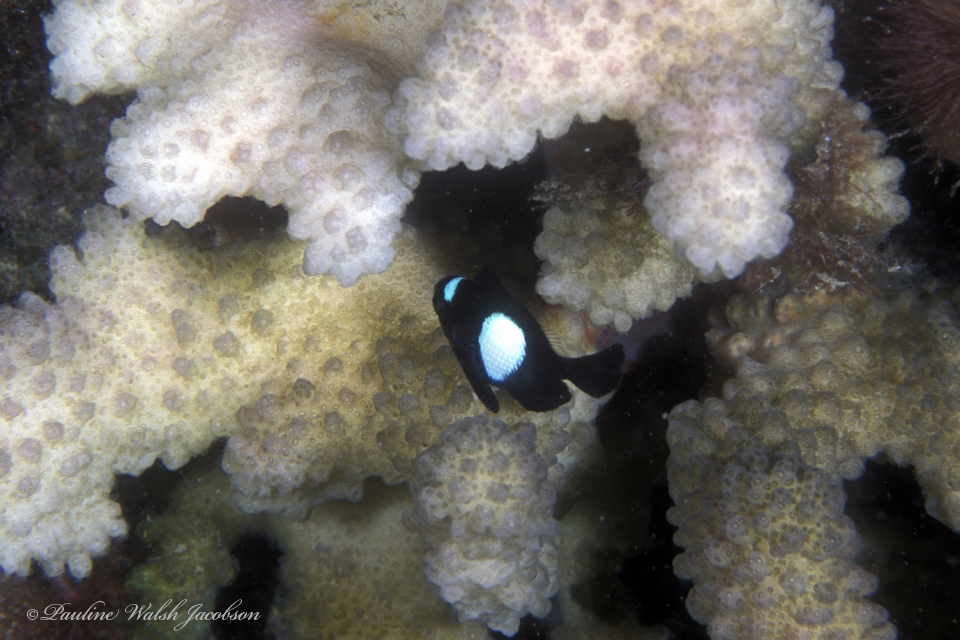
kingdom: Animalia
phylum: Chordata
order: Perciformes
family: Pomacentridae
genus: Dascyllus
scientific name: Dascyllus albisella
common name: Hawaiian dascyllus
